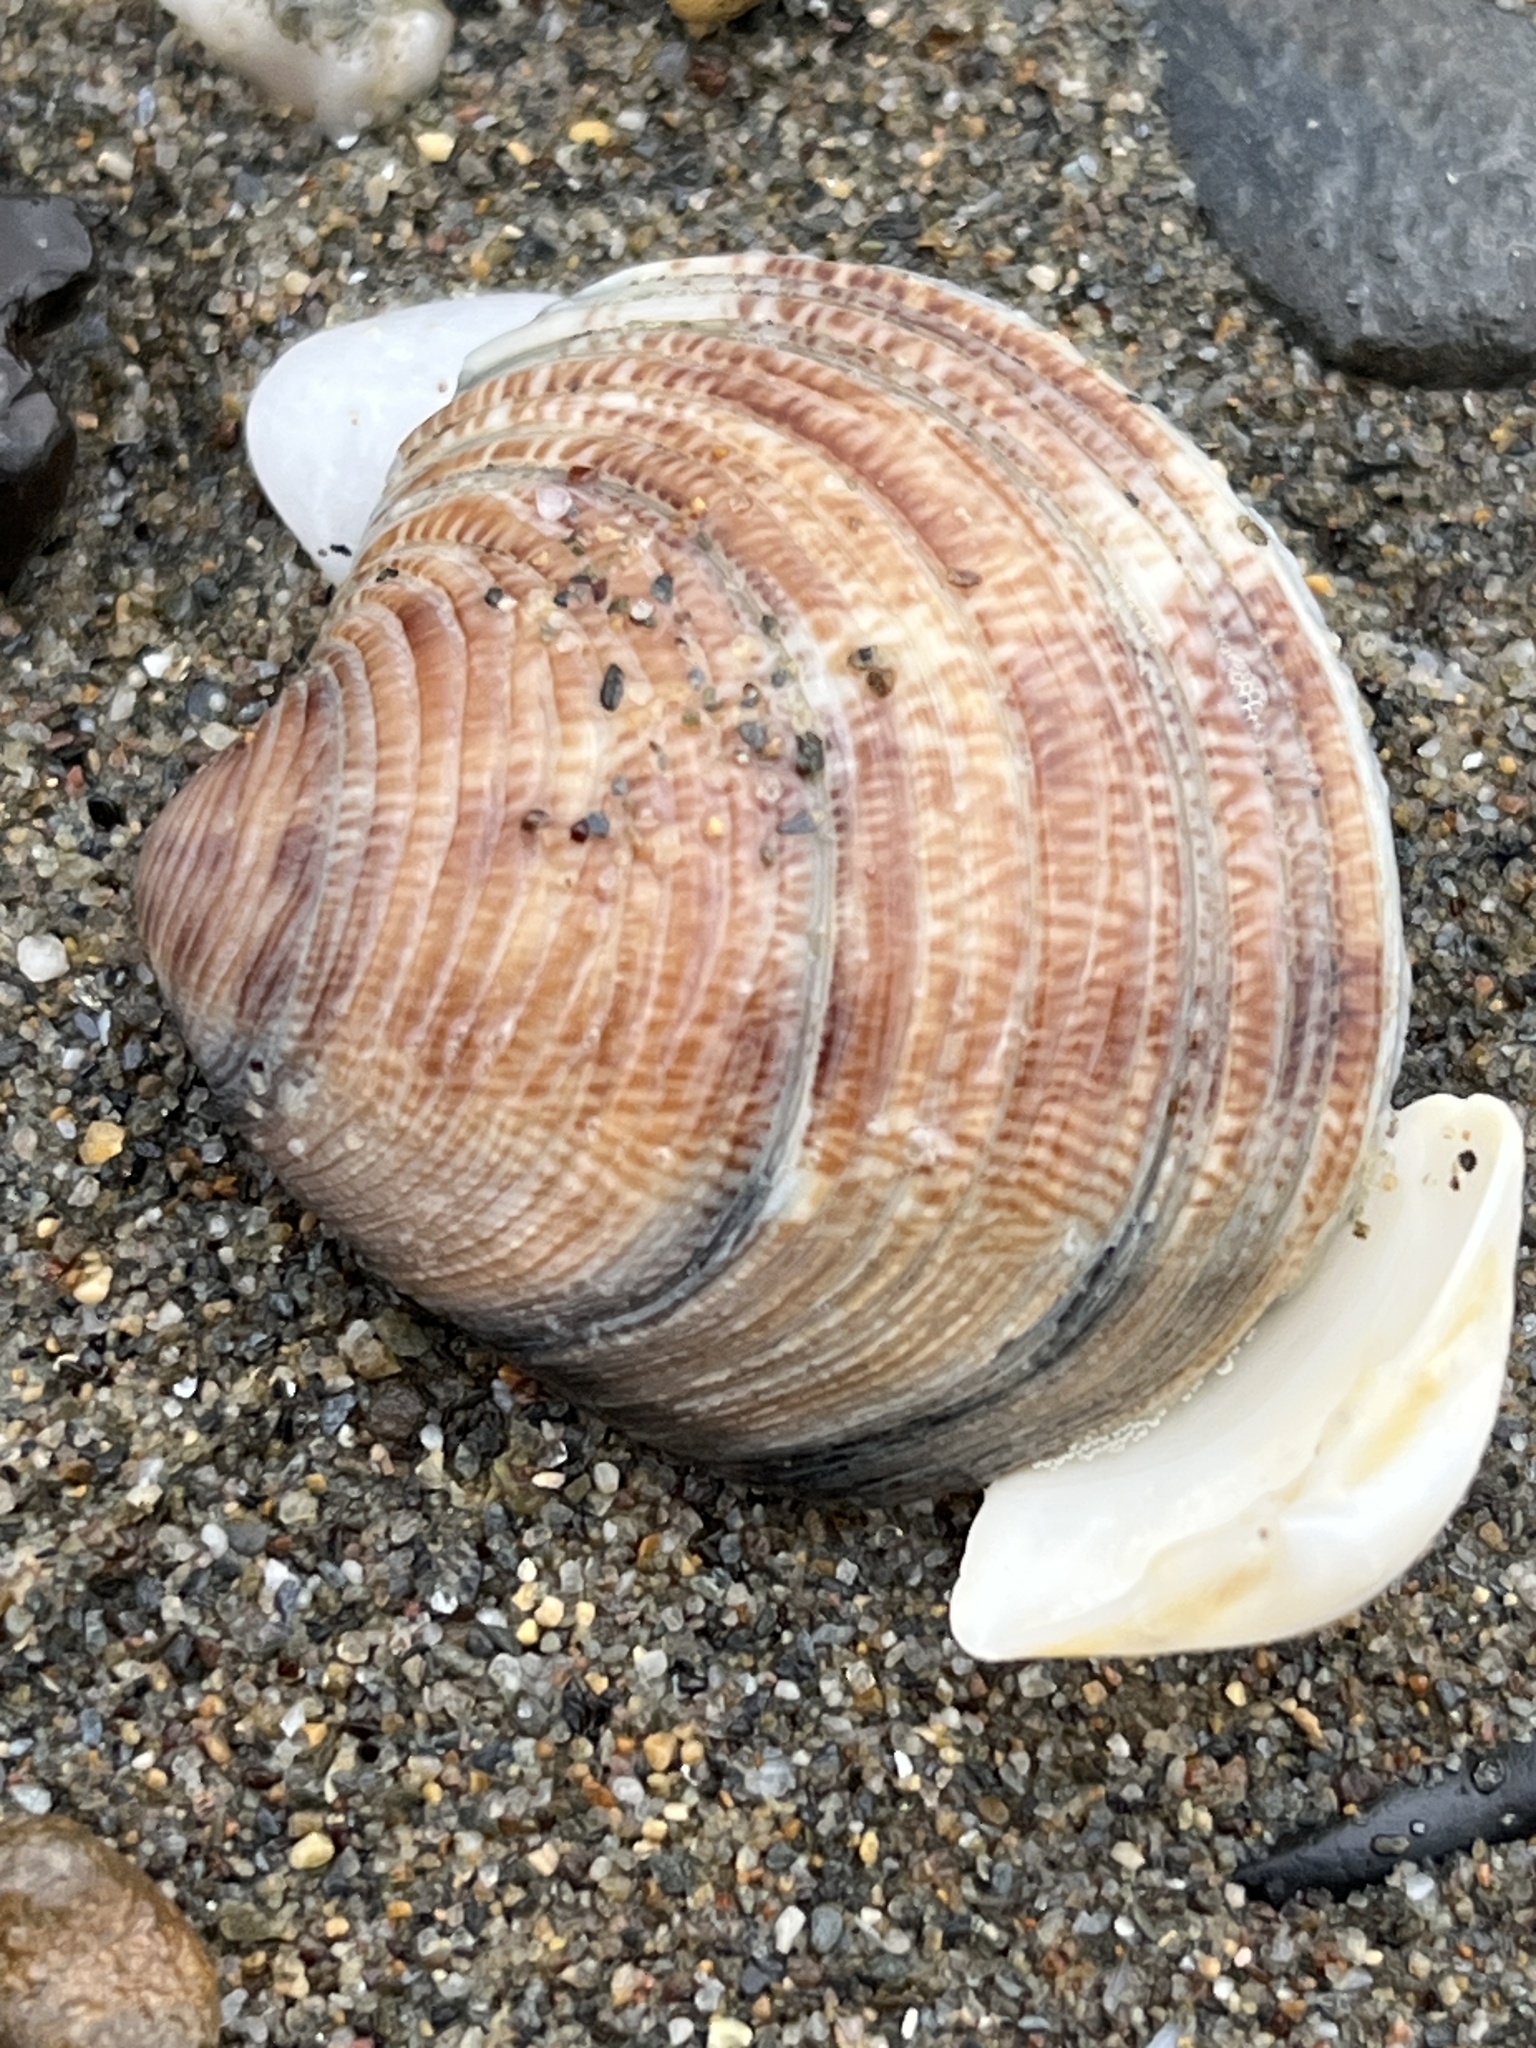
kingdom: Animalia
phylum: Mollusca
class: Bivalvia
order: Venerida
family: Veneridae
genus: Chamelea
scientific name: Chamelea gallina
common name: Chicken venus
